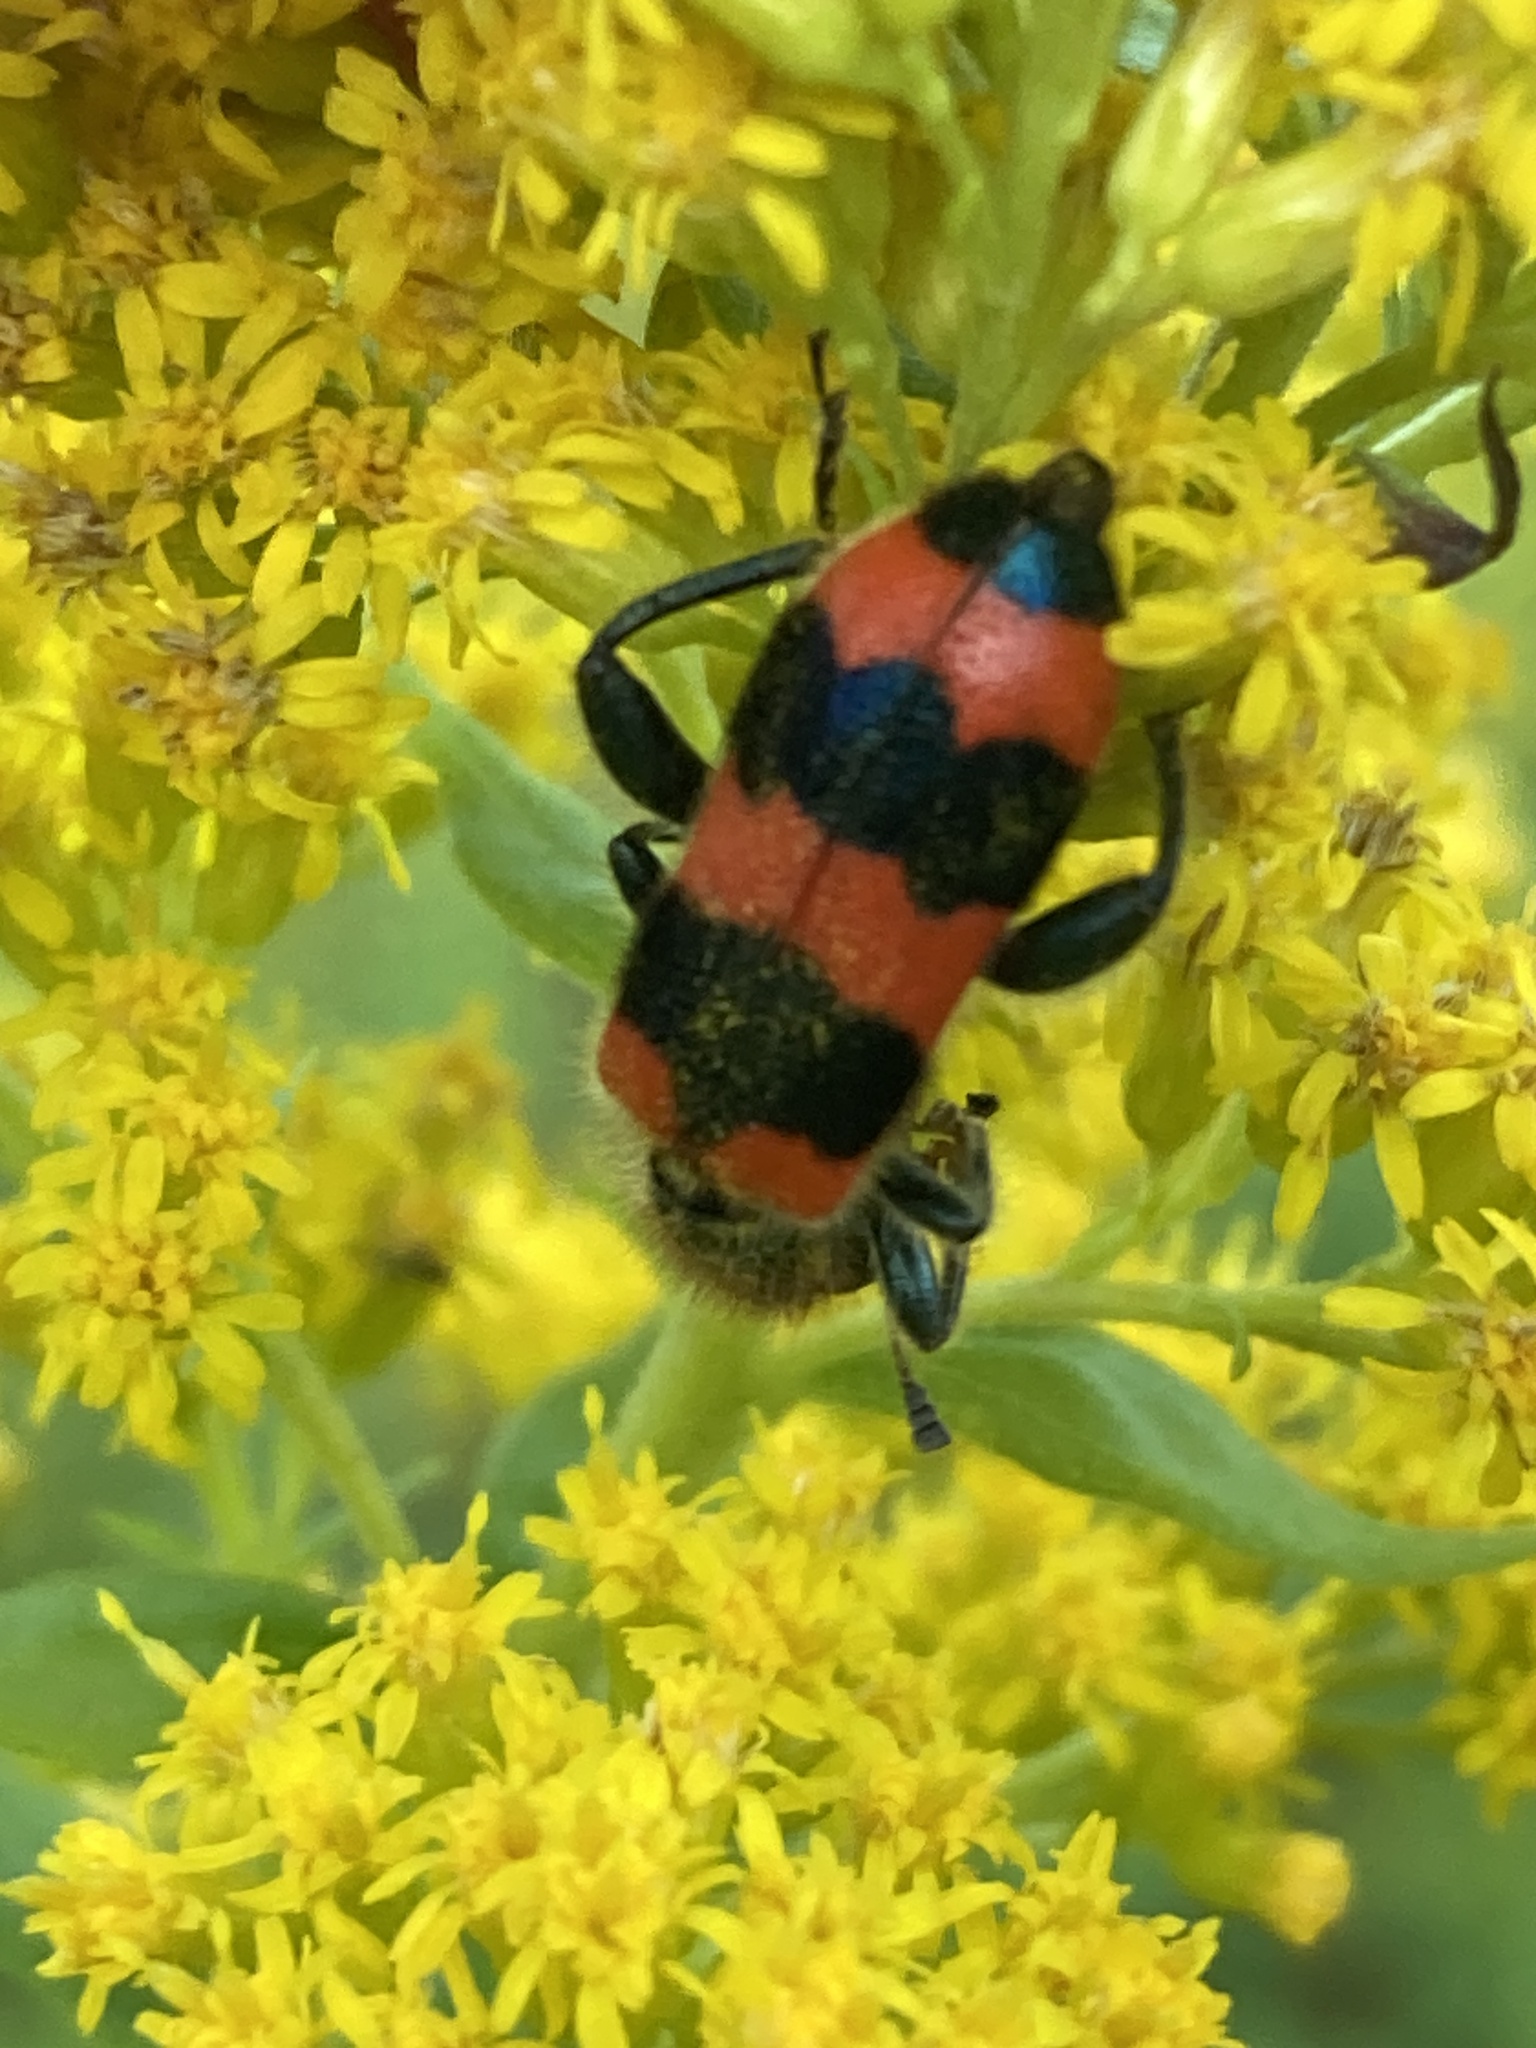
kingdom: Animalia
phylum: Arthropoda
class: Insecta
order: Coleoptera
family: Cleridae
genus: Trichodes
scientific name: Trichodes apiarius
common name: Bee-eating beetle
